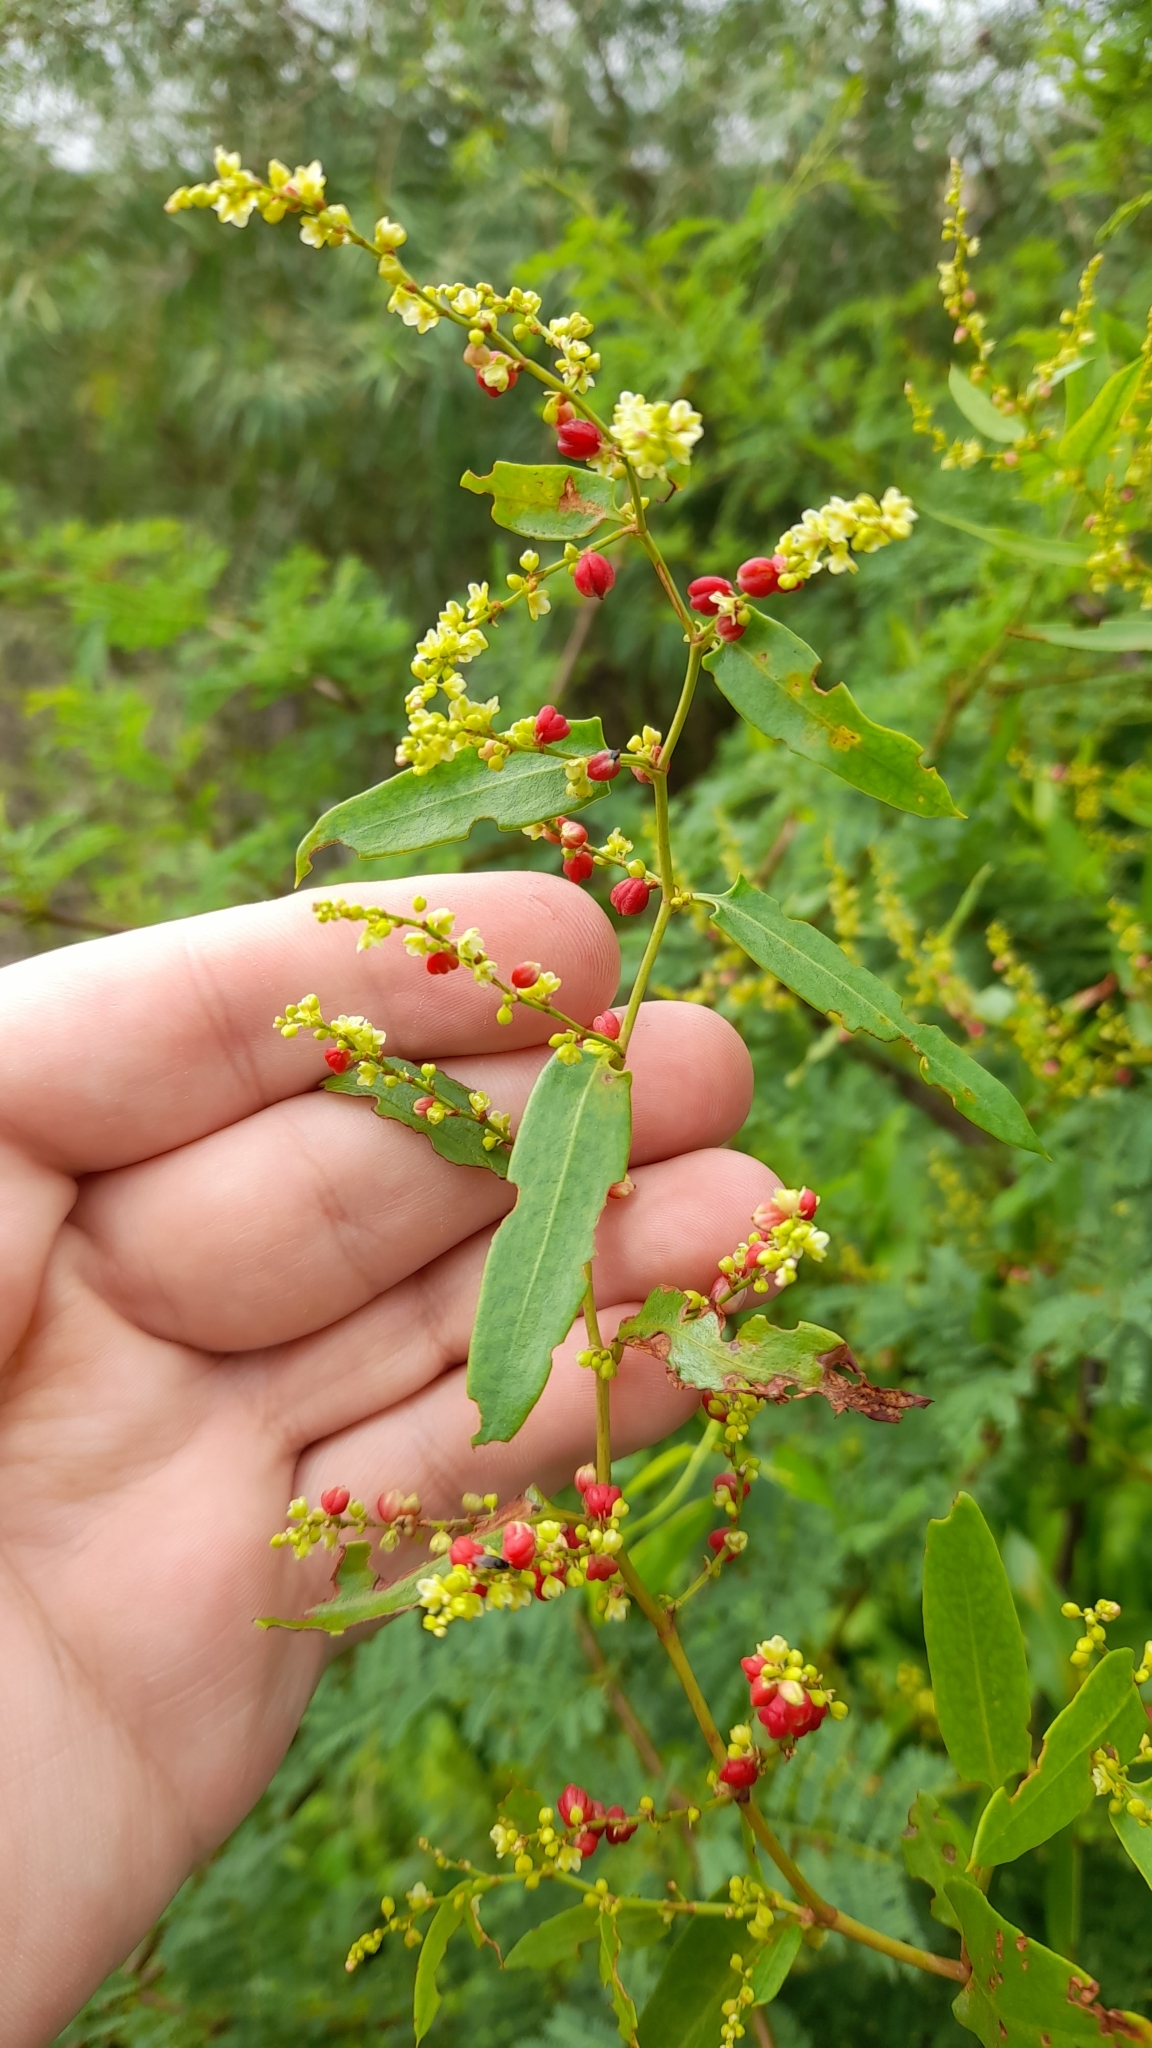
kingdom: Plantae
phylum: Tracheophyta
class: Magnoliopsida
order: Caryophyllales
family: Polygonaceae
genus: Muehlenbeckia
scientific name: Muehlenbeckia sagittifolia
